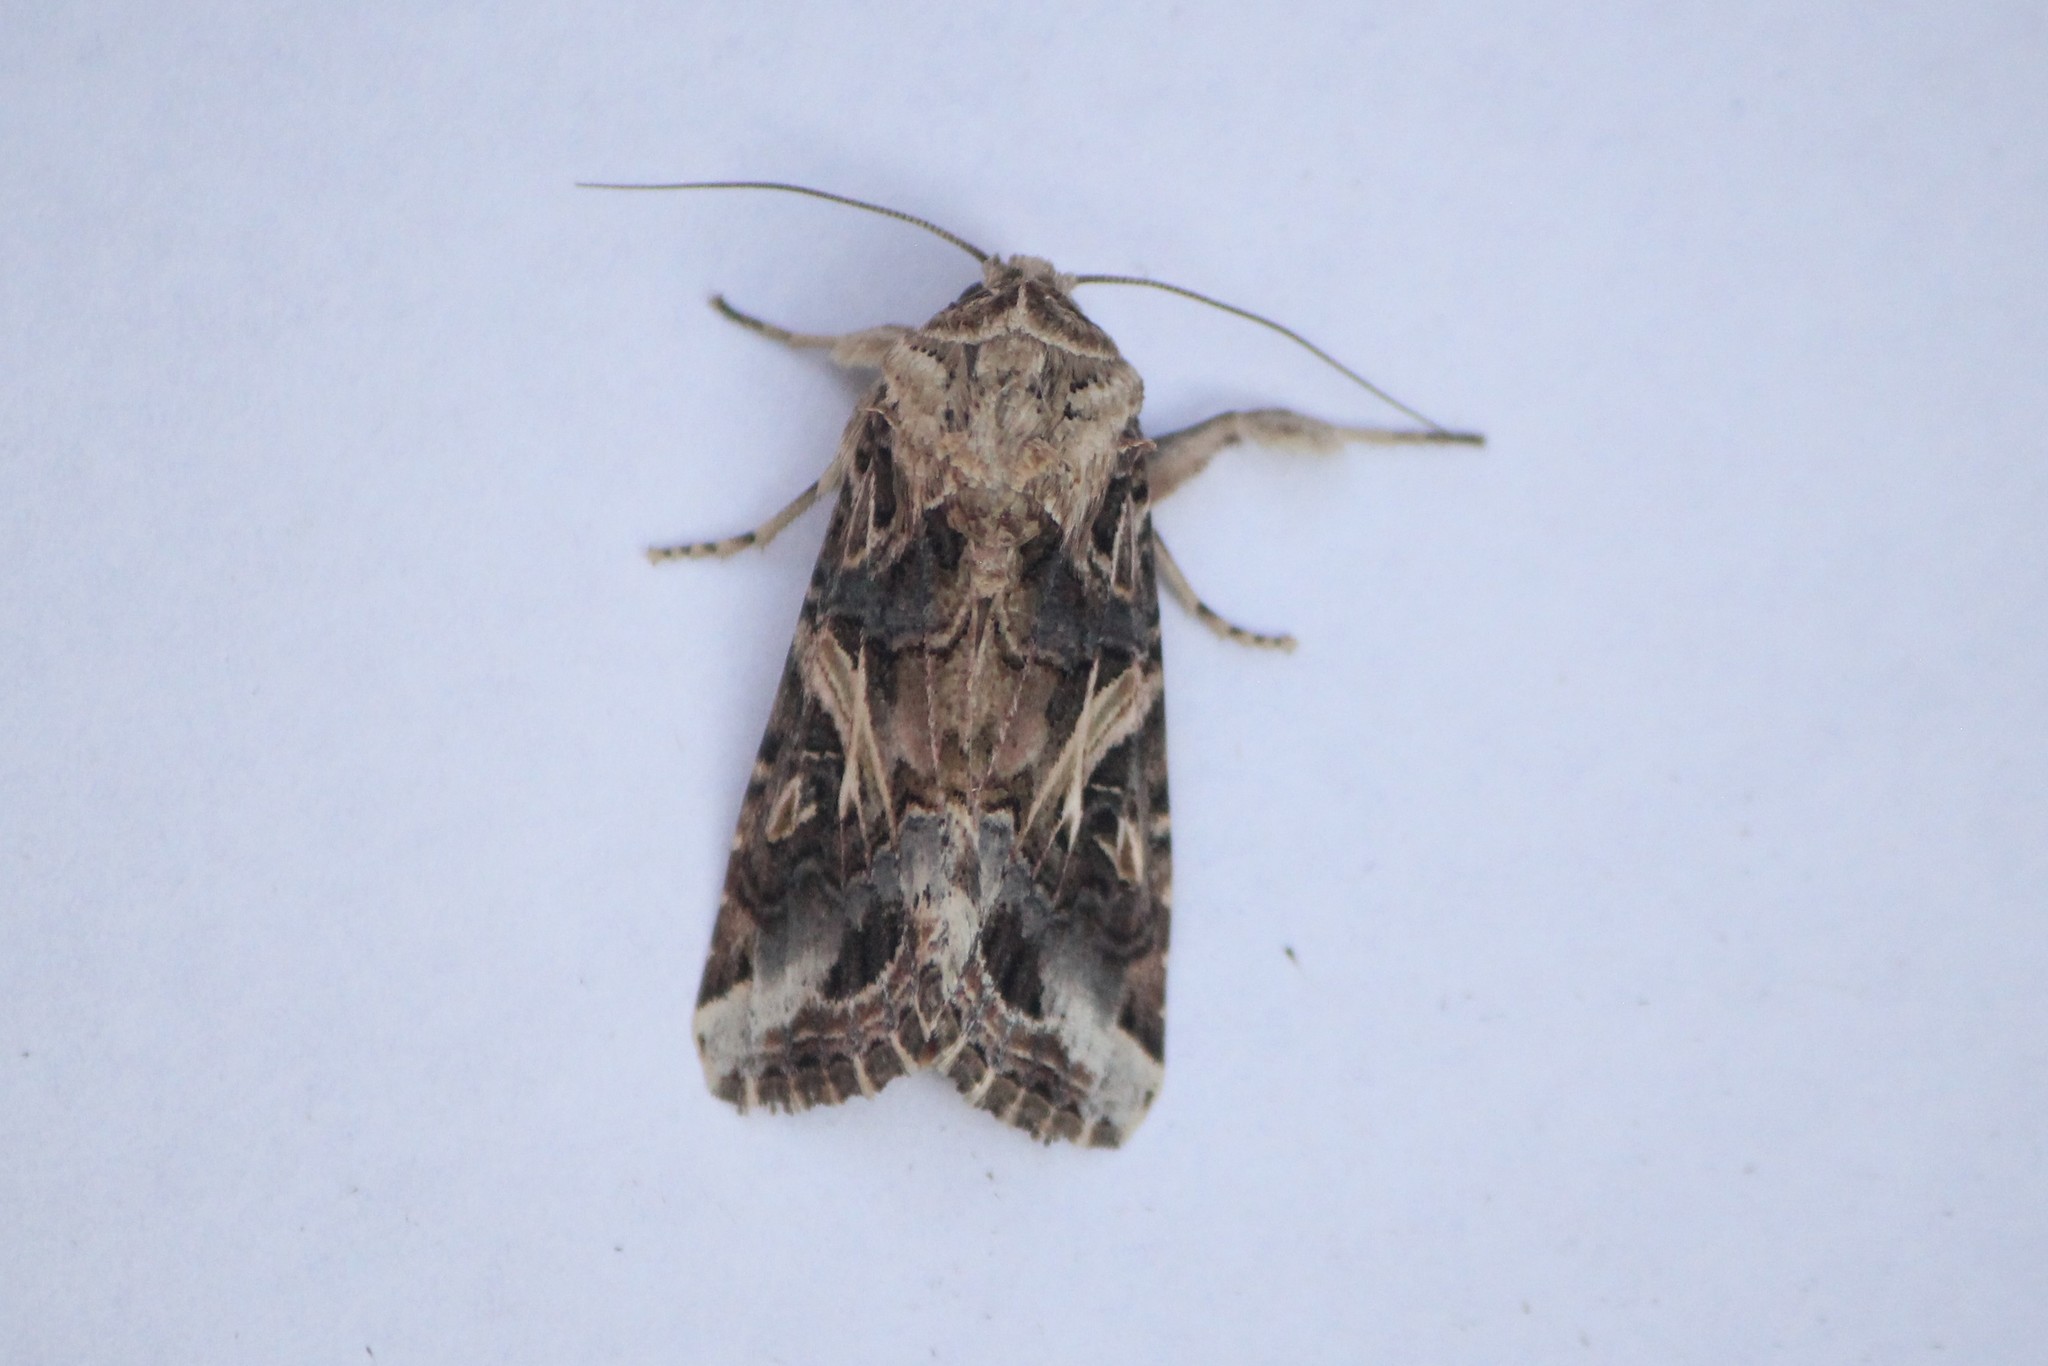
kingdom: Animalia
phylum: Arthropoda
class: Insecta
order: Lepidoptera
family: Noctuidae
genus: Spodoptera
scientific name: Spodoptera ornithogalli
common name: Yellow-striped armyworm
